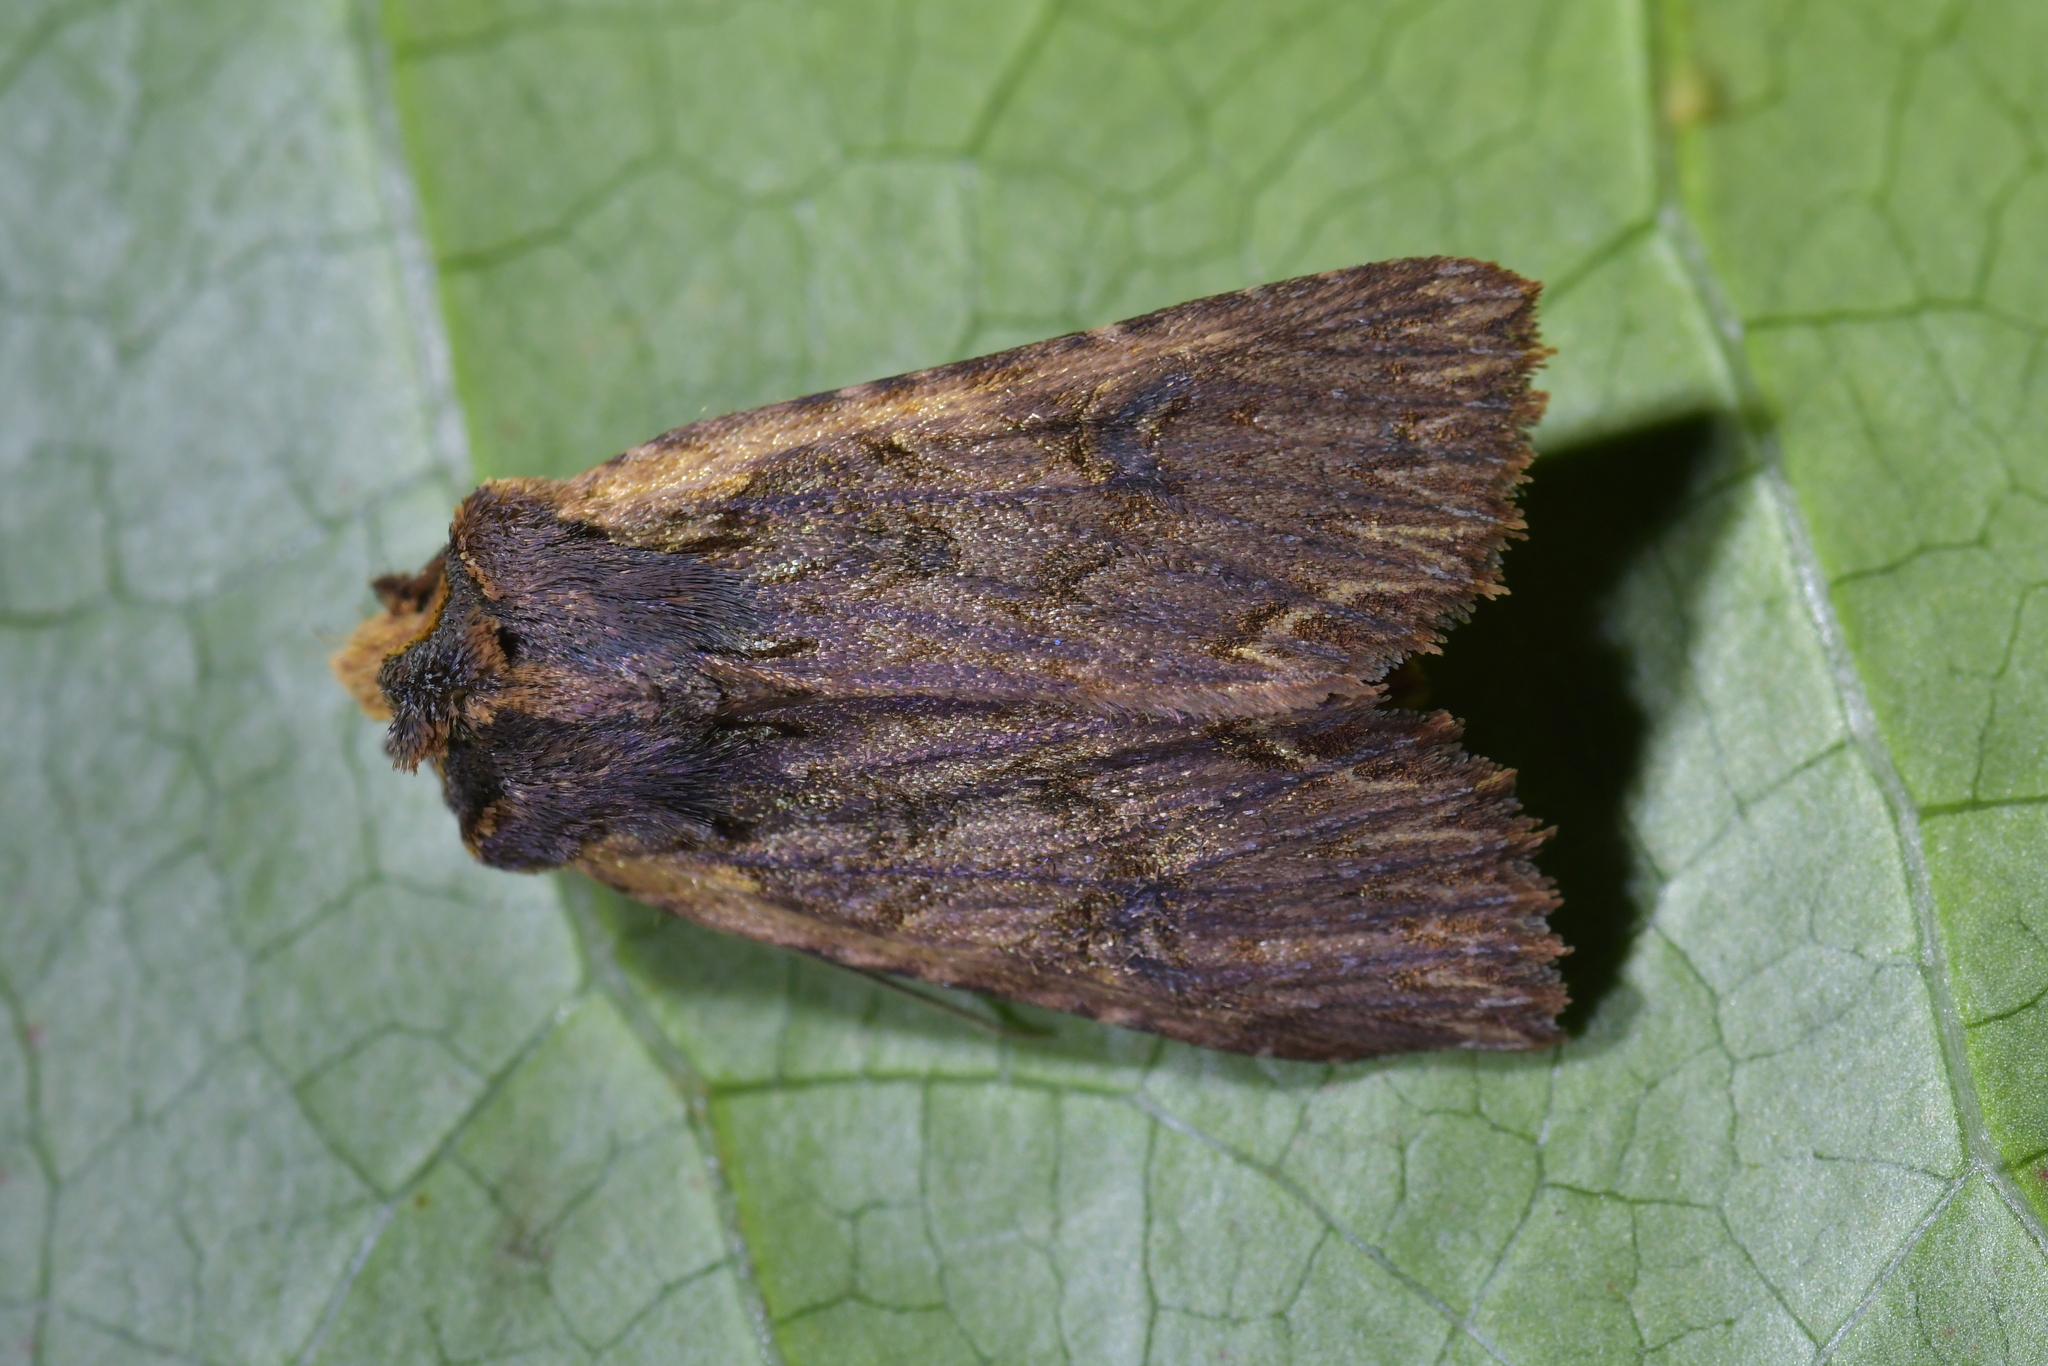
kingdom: Animalia
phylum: Arthropoda
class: Insecta
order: Lepidoptera
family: Noctuidae
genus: Meterana
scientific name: Meterana alcyone
